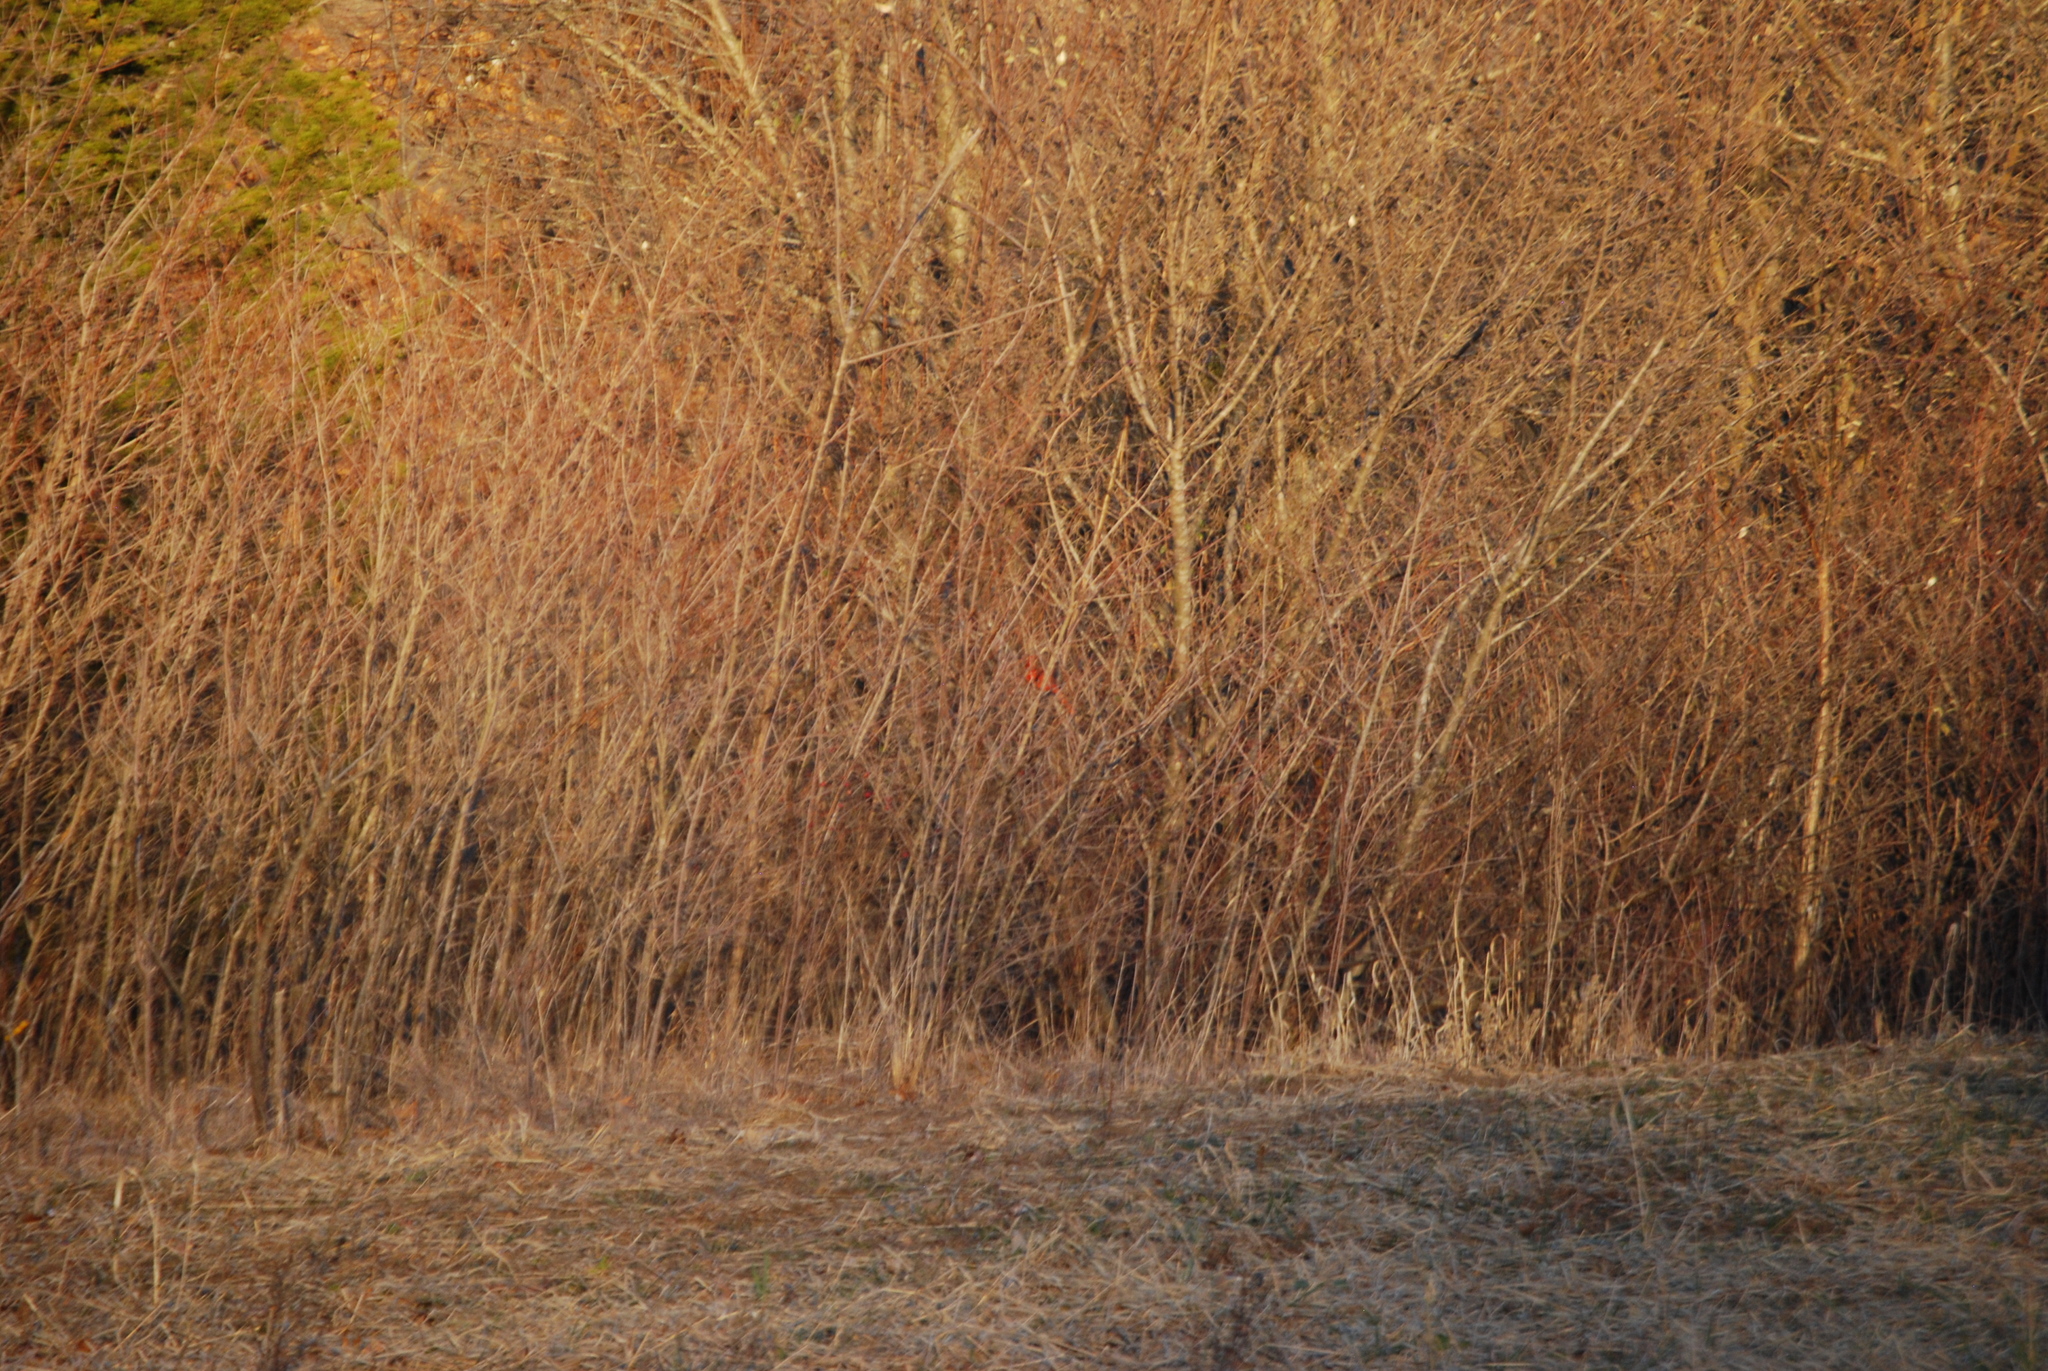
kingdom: Animalia
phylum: Chordata
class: Aves
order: Passeriformes
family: Cardinalidae
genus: Cardinalis
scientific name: Cardinalis cardinalis
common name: Northern cardinal
